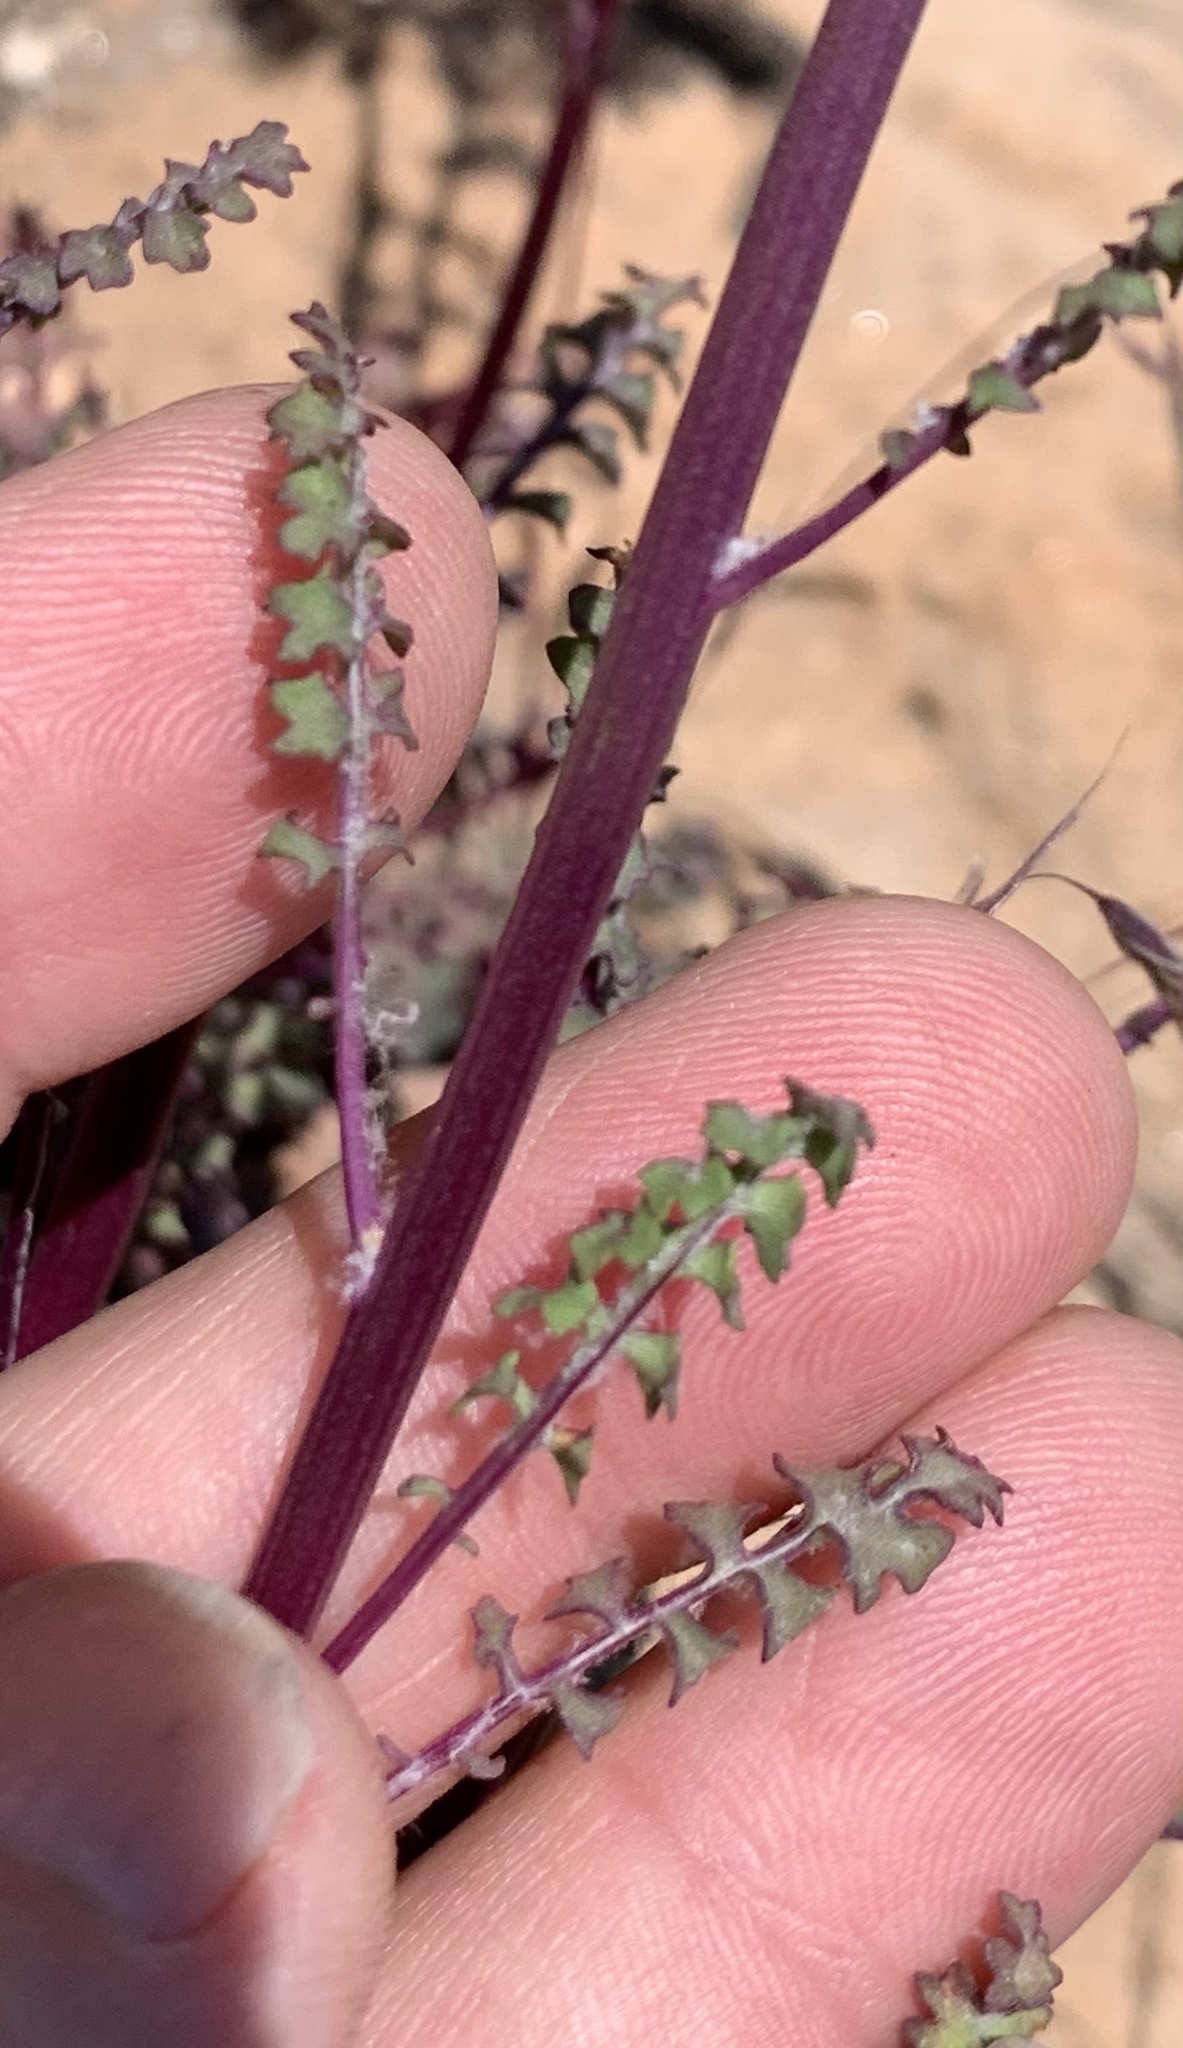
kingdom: Plantae
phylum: Tracheophyta
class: Magnoliopsida
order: Asterales
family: Asteraceae
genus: Packera
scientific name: Packera multilobata
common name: Lobe-leaf groundsel
